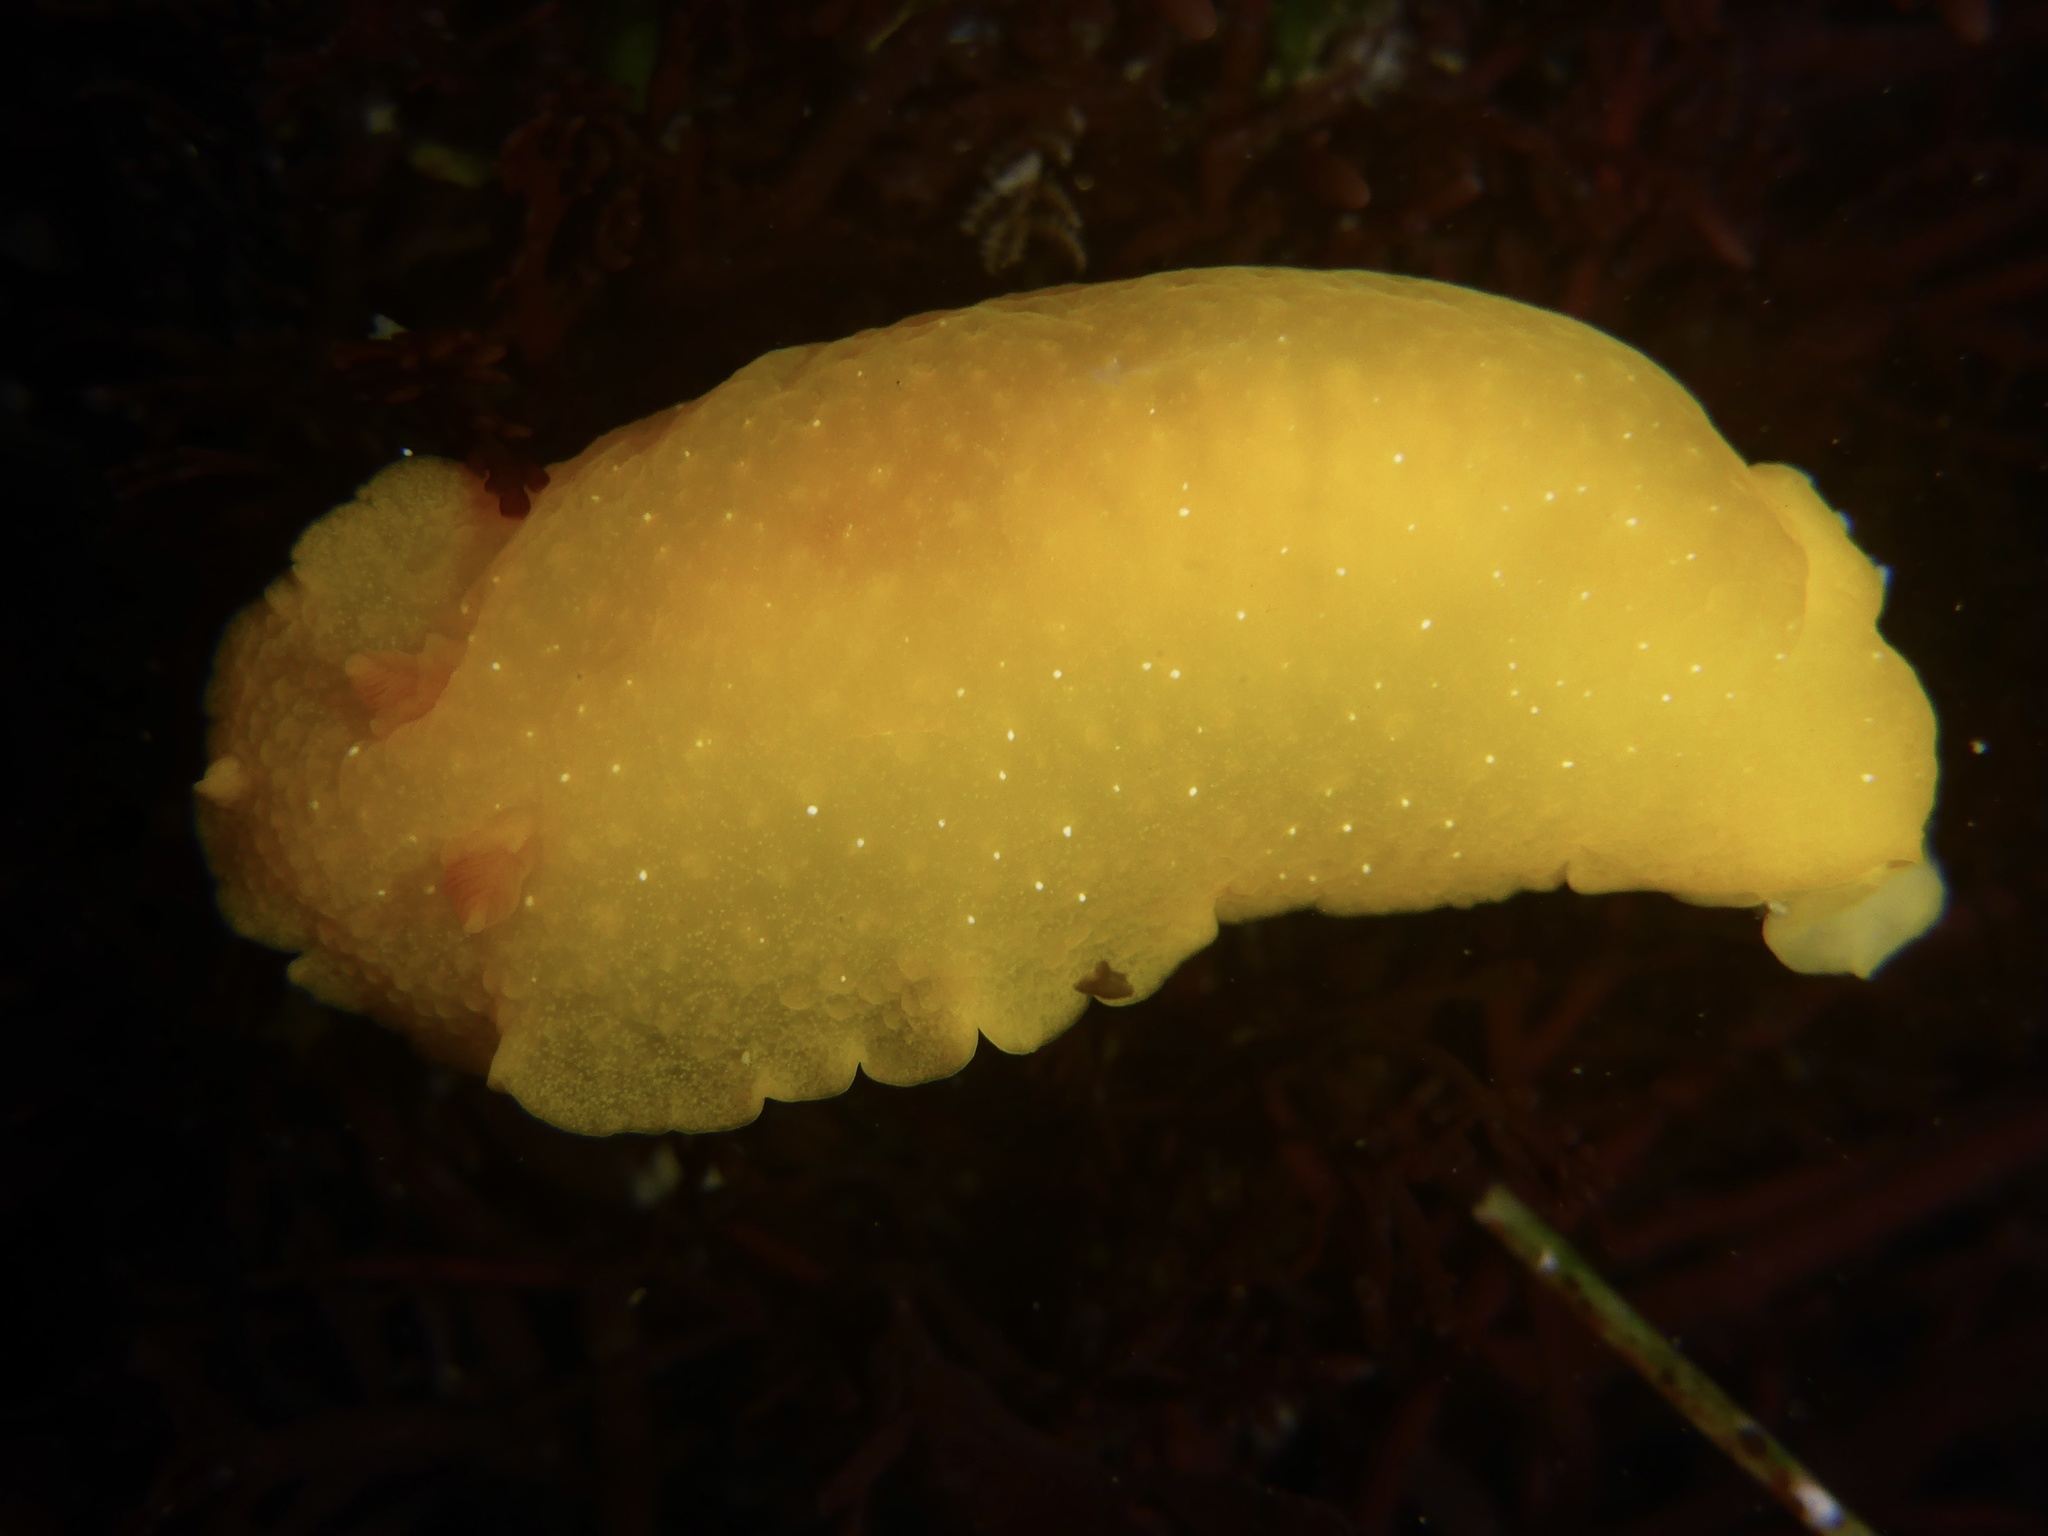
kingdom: Animalia
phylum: Mollusca
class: Gastropoda
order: Nudibranchia
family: Dendrodorididae
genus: Doriopsilla
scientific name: Doriopsilla fulva
